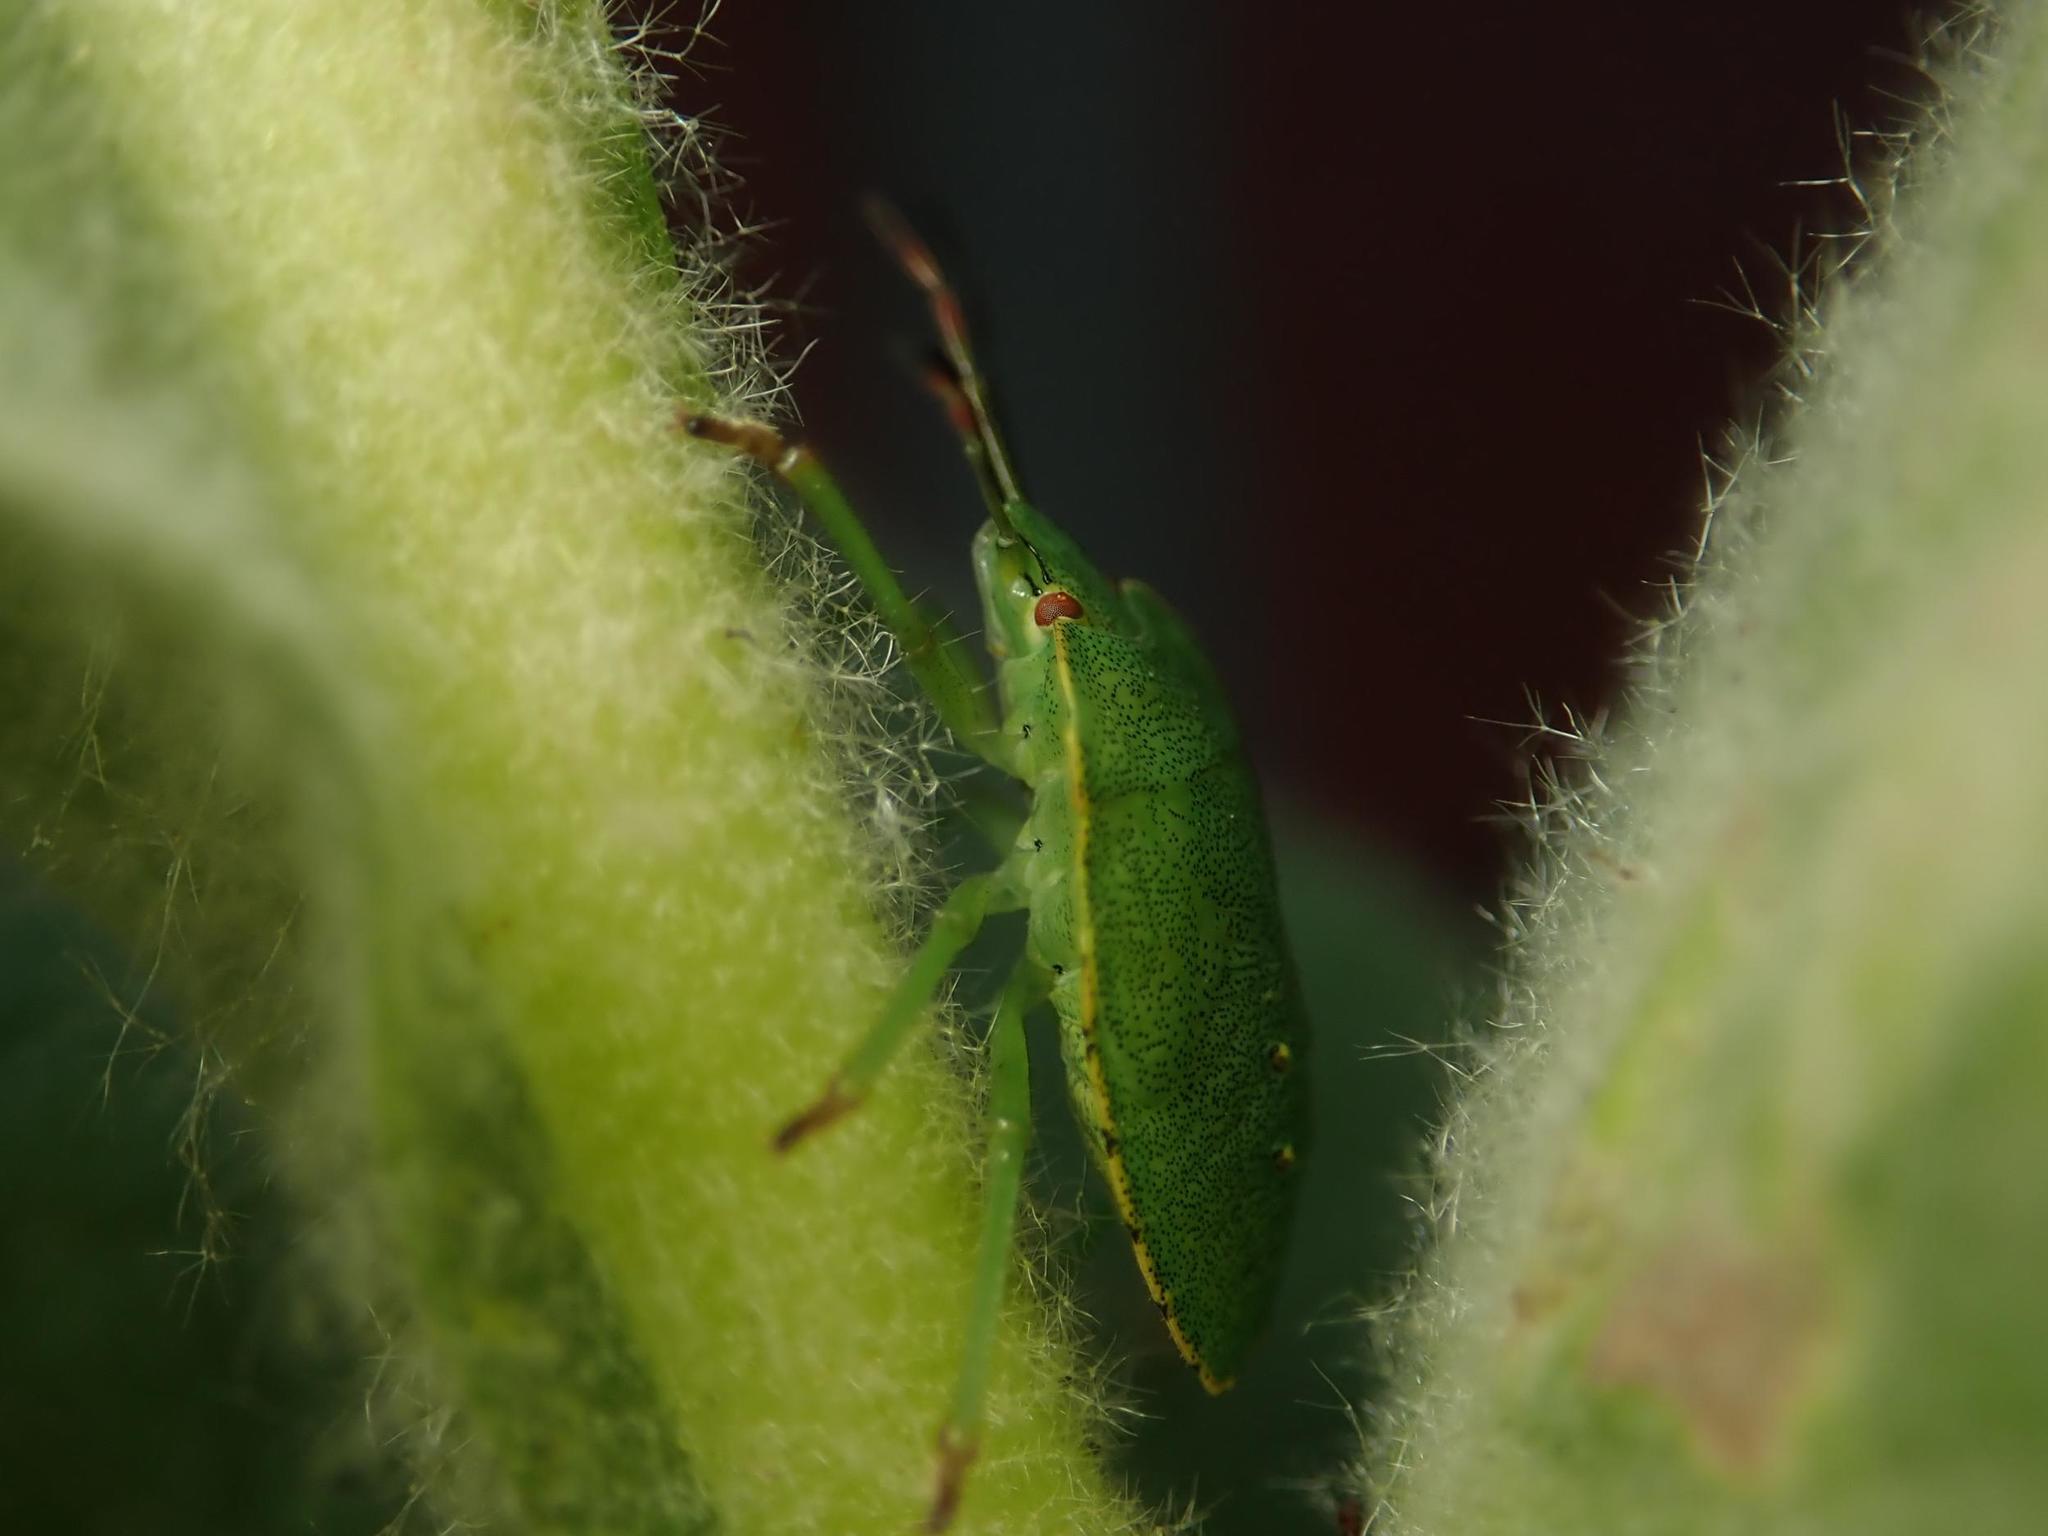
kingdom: Animalia
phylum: Arthropoda
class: Insecta
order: Hemiptera
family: Pentatomidae
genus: Palomena
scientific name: Palomena prasina
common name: Green shieldbug
